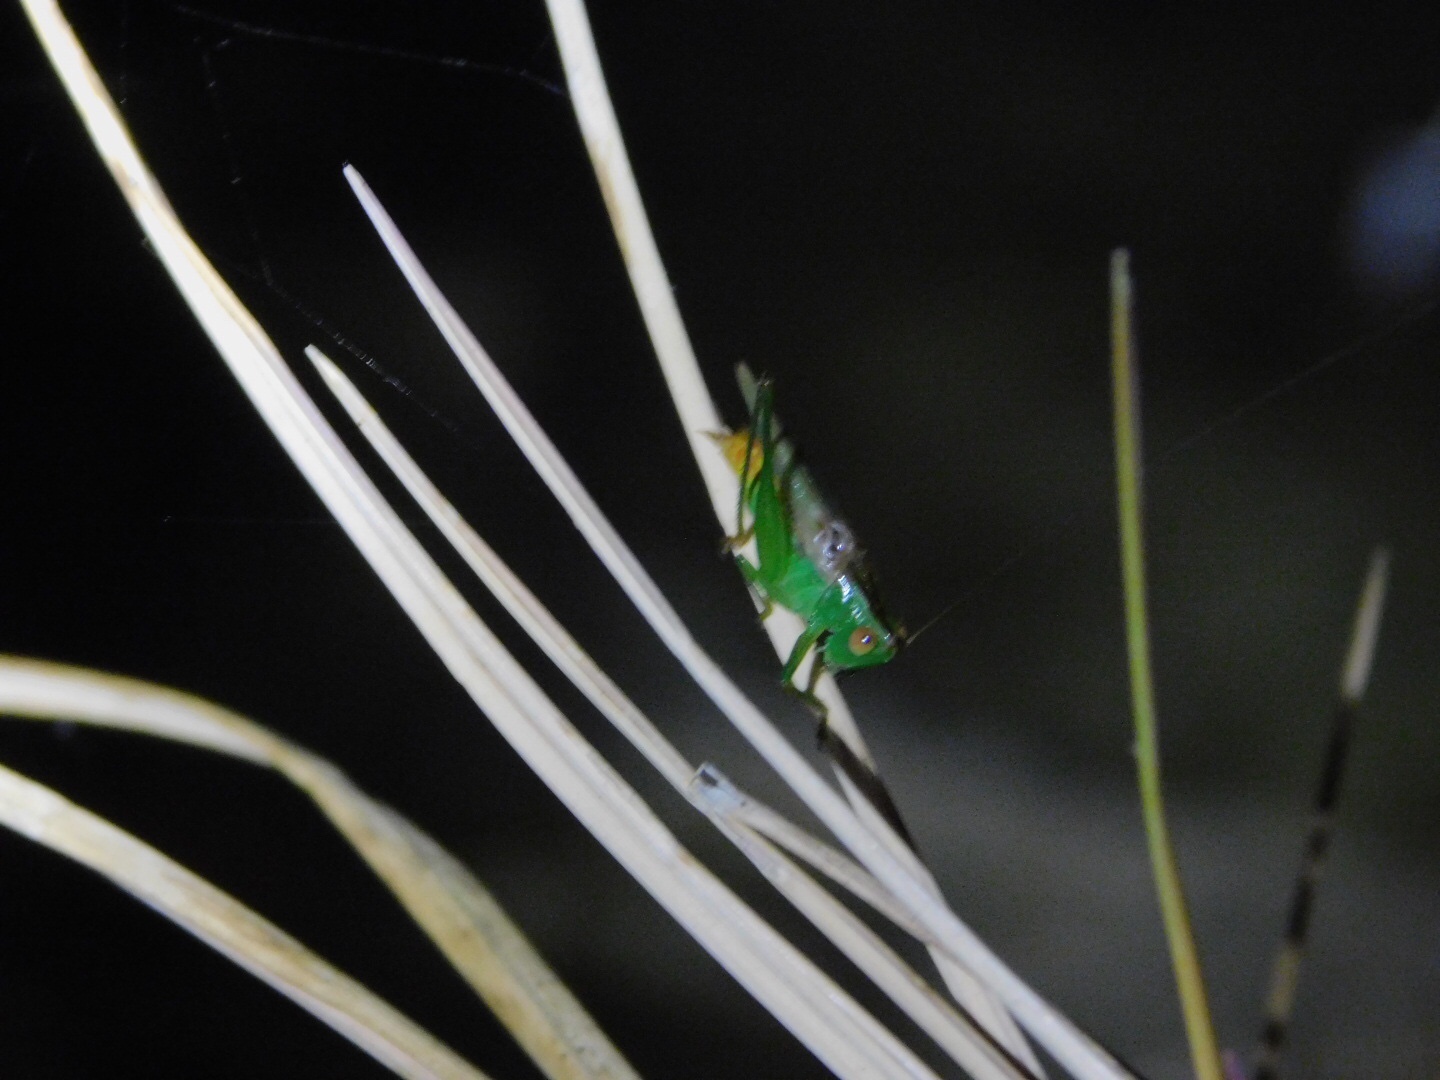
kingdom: Animalia
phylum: Arthropoda
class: Insecta
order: Orthoptera
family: Tettigoniidae
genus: Conocephalus
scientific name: Conocephalus cinereus
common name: Caribbean meadow katydid
